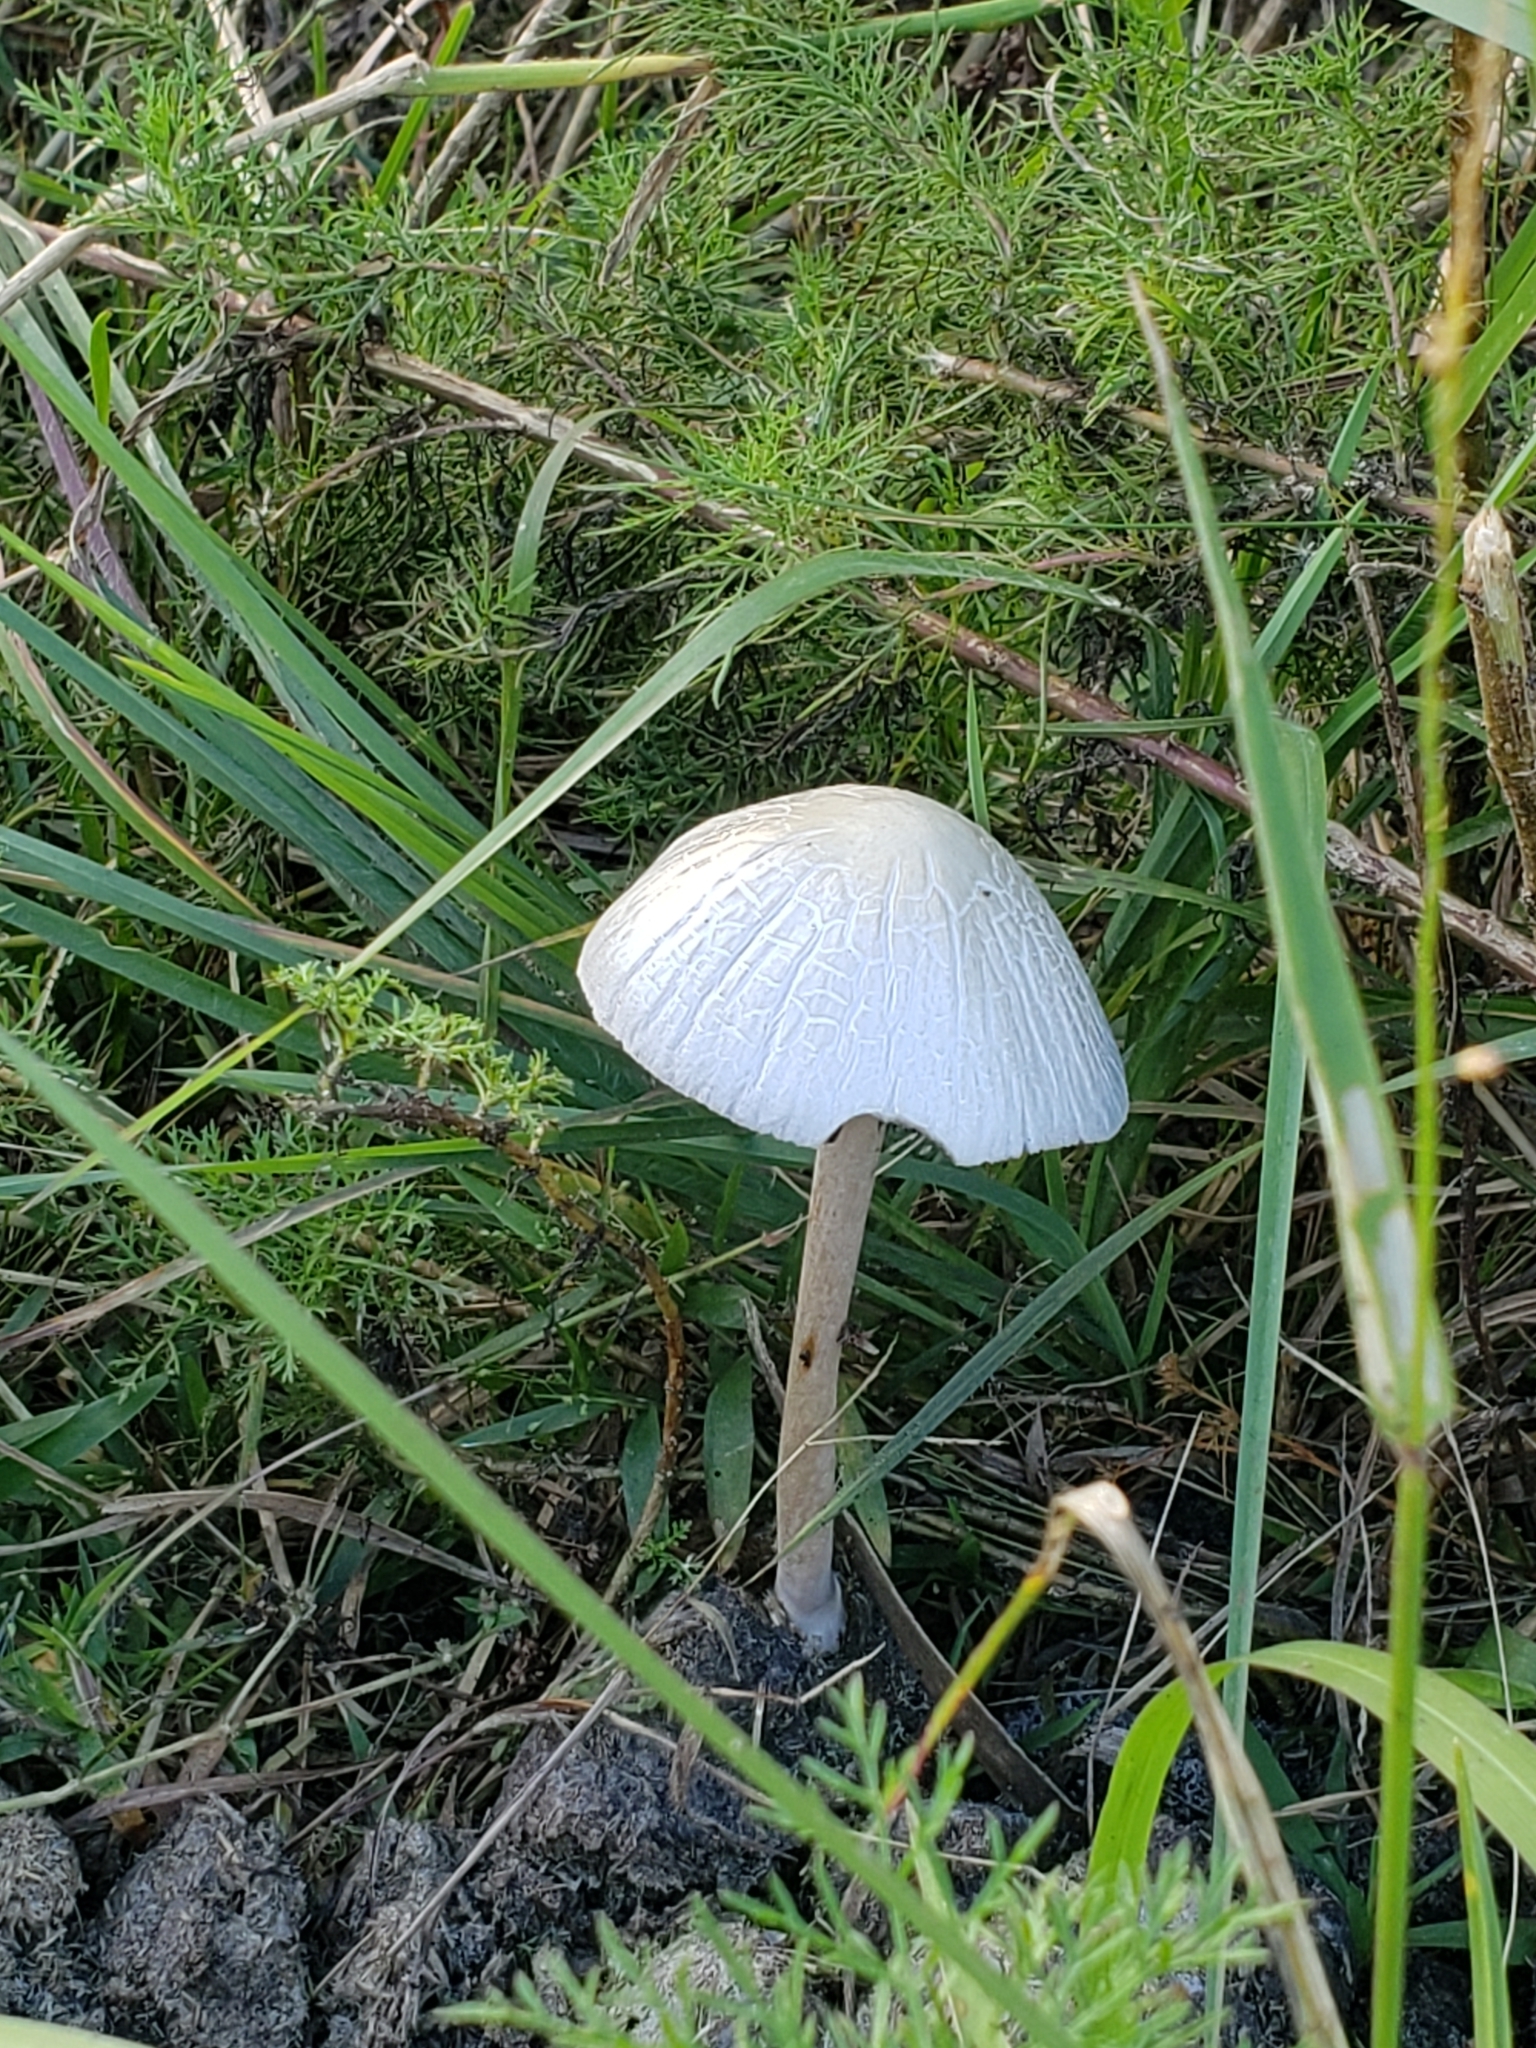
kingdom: Fungi
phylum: Basidiomycota
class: Agaricomycetes
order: Agaricales
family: Bolbitiaceae
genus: Panaeolus
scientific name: Panaeolus antillarum
